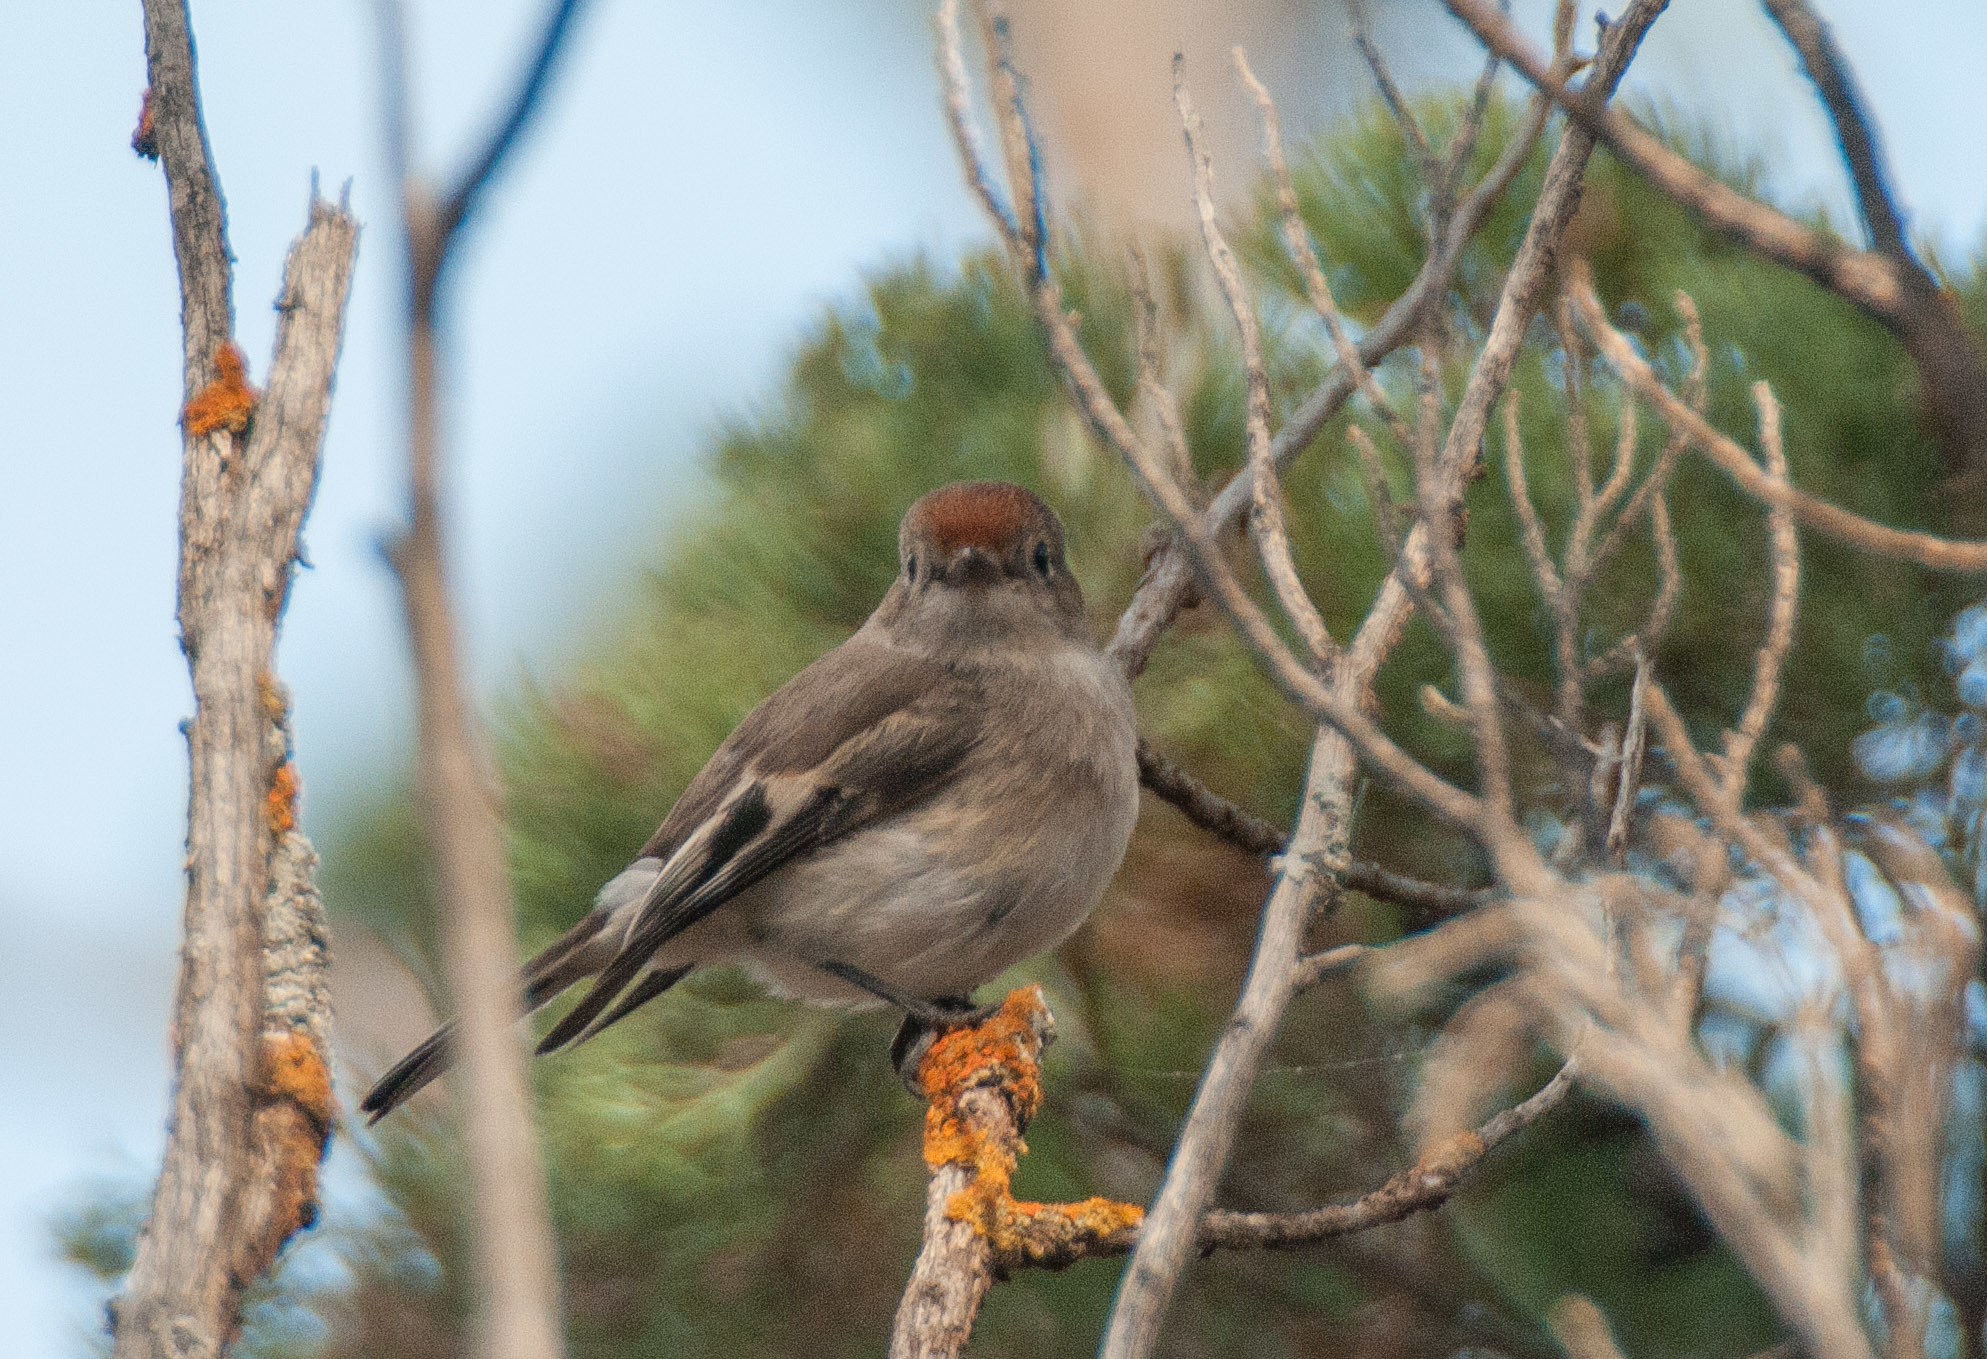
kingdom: Animalia
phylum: Chordata
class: Aves
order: Passeriformes
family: Petroicidae
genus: Petroica
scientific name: Petroica goodenovii
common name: Red-capped robin
